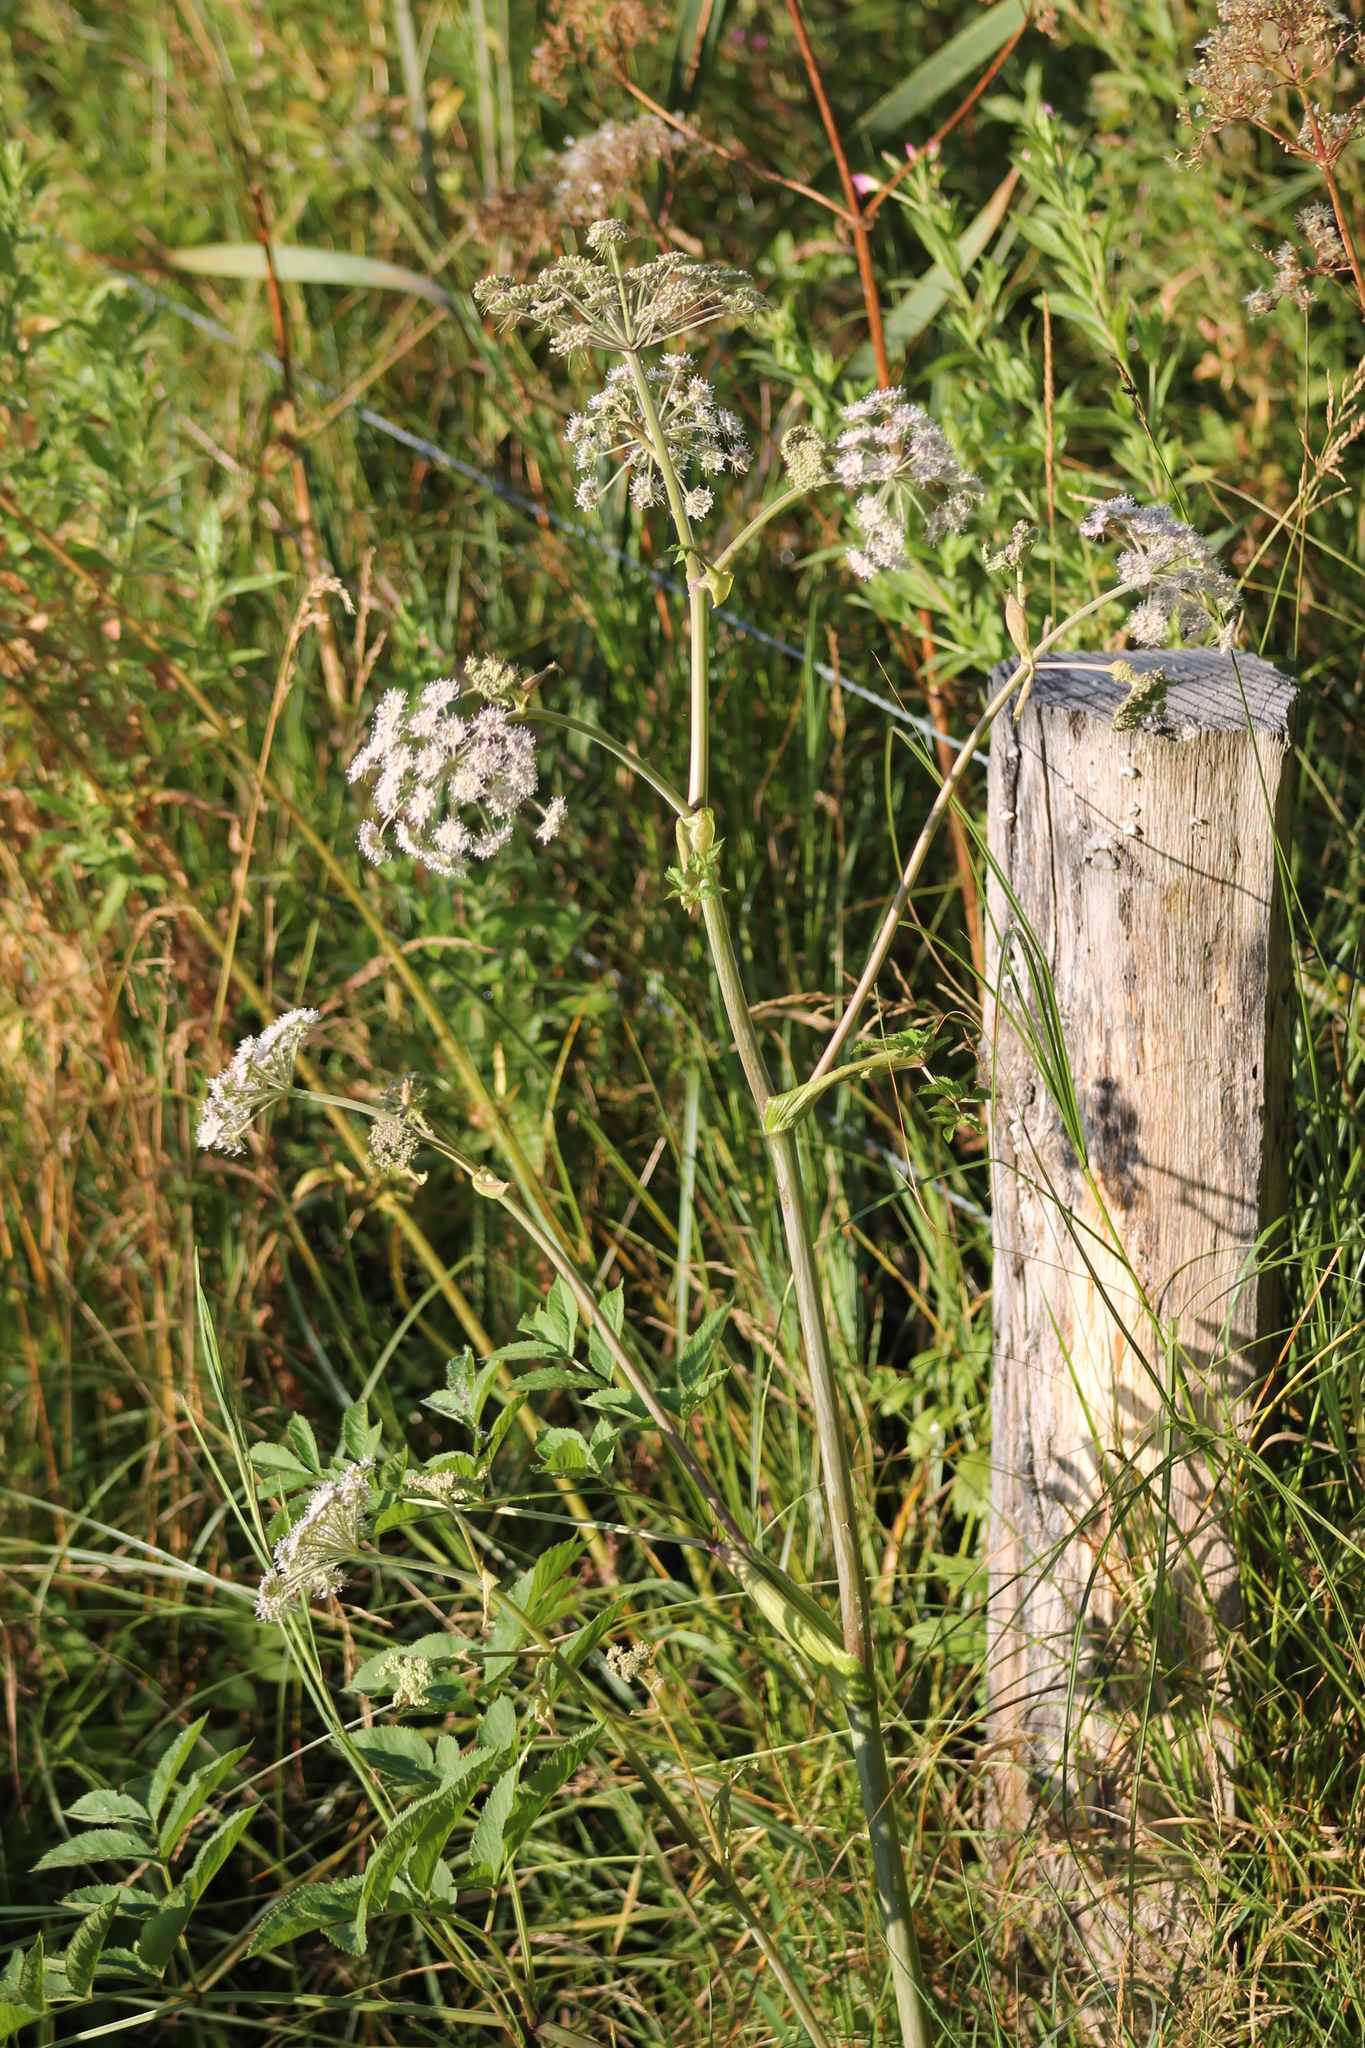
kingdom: Plantae
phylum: Tracheophyta
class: Magnoliopsida
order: Apiales
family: Apiaceae
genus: Angelica
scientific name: Angelica sylvestris
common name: Wild angelica
